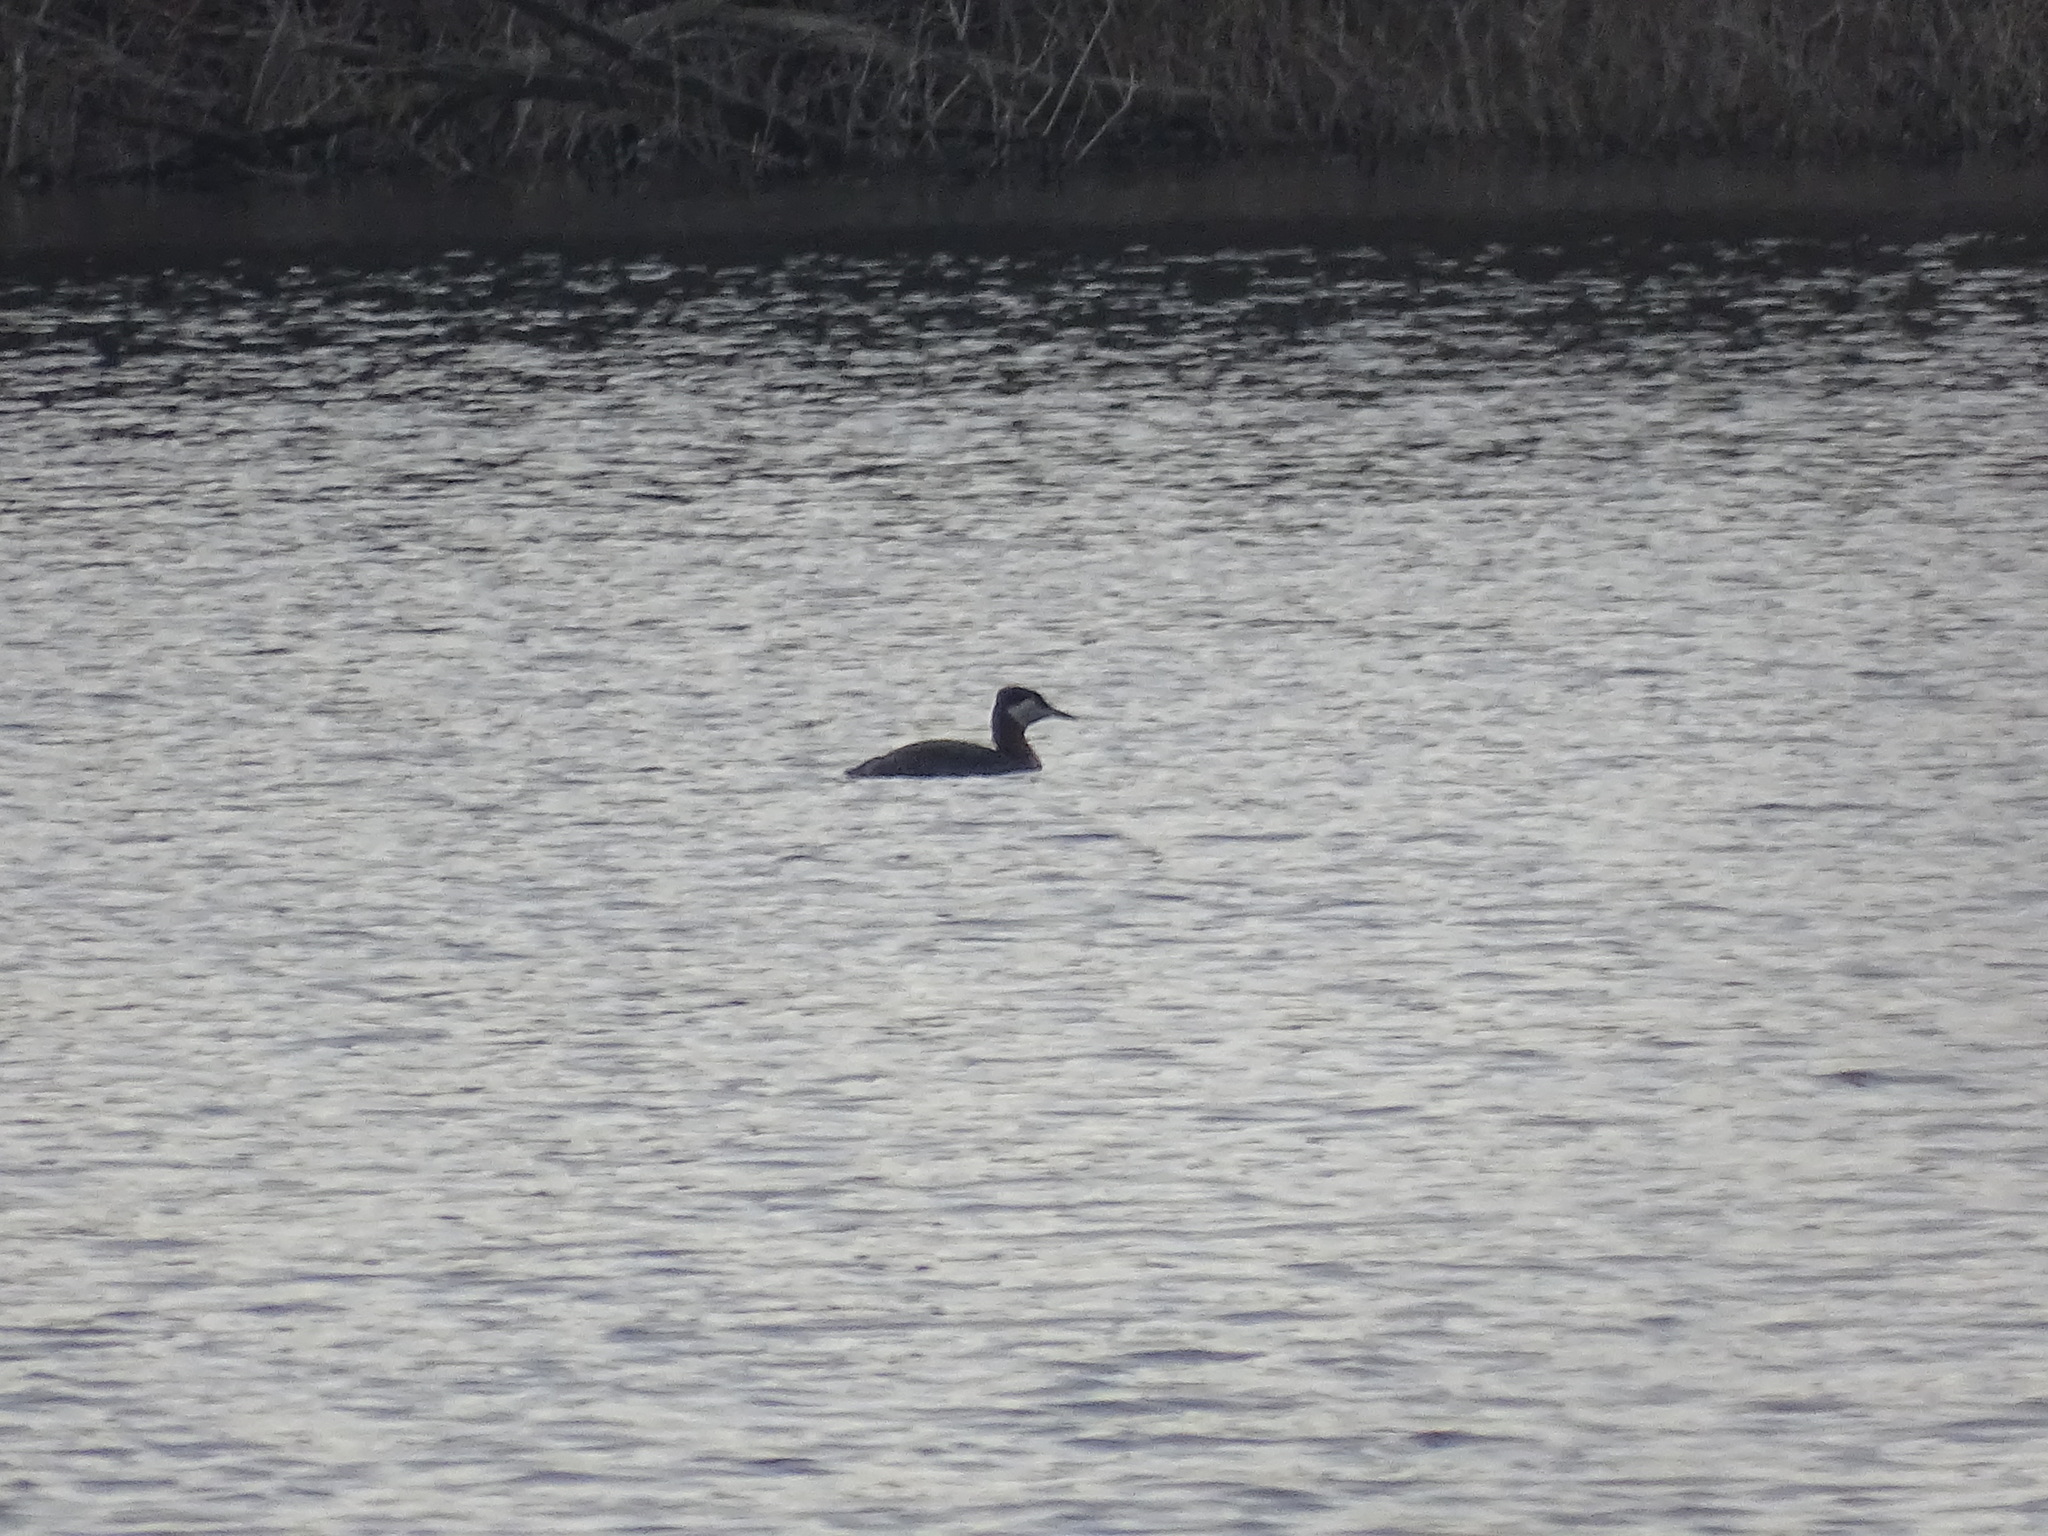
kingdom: Animalia
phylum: Chordata
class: Aves
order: Podicipediformes
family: Podicipedidae
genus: Podiceps
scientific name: Podiceps grisegena
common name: Red-necked grebe
